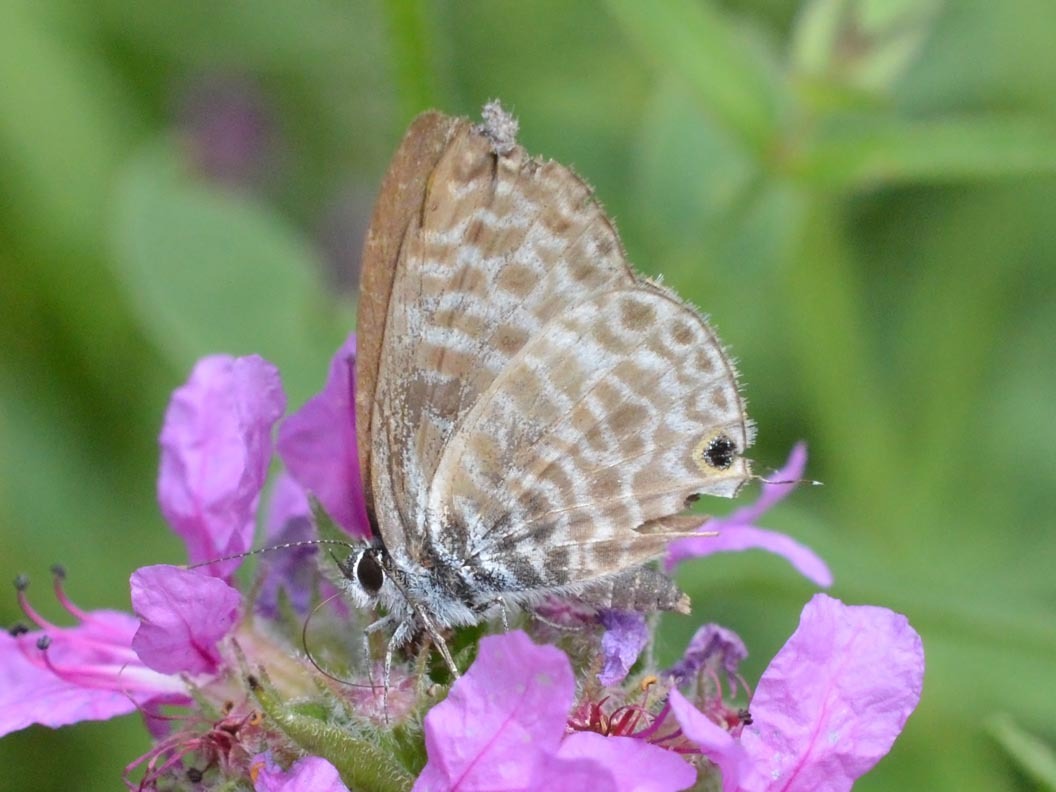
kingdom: Animalia
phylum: Arthropoda
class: Insecta
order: Lepidoptera
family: Lycaenidae
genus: Leptotes
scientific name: Leptotes pirithous
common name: Lang's short-tailed blue
